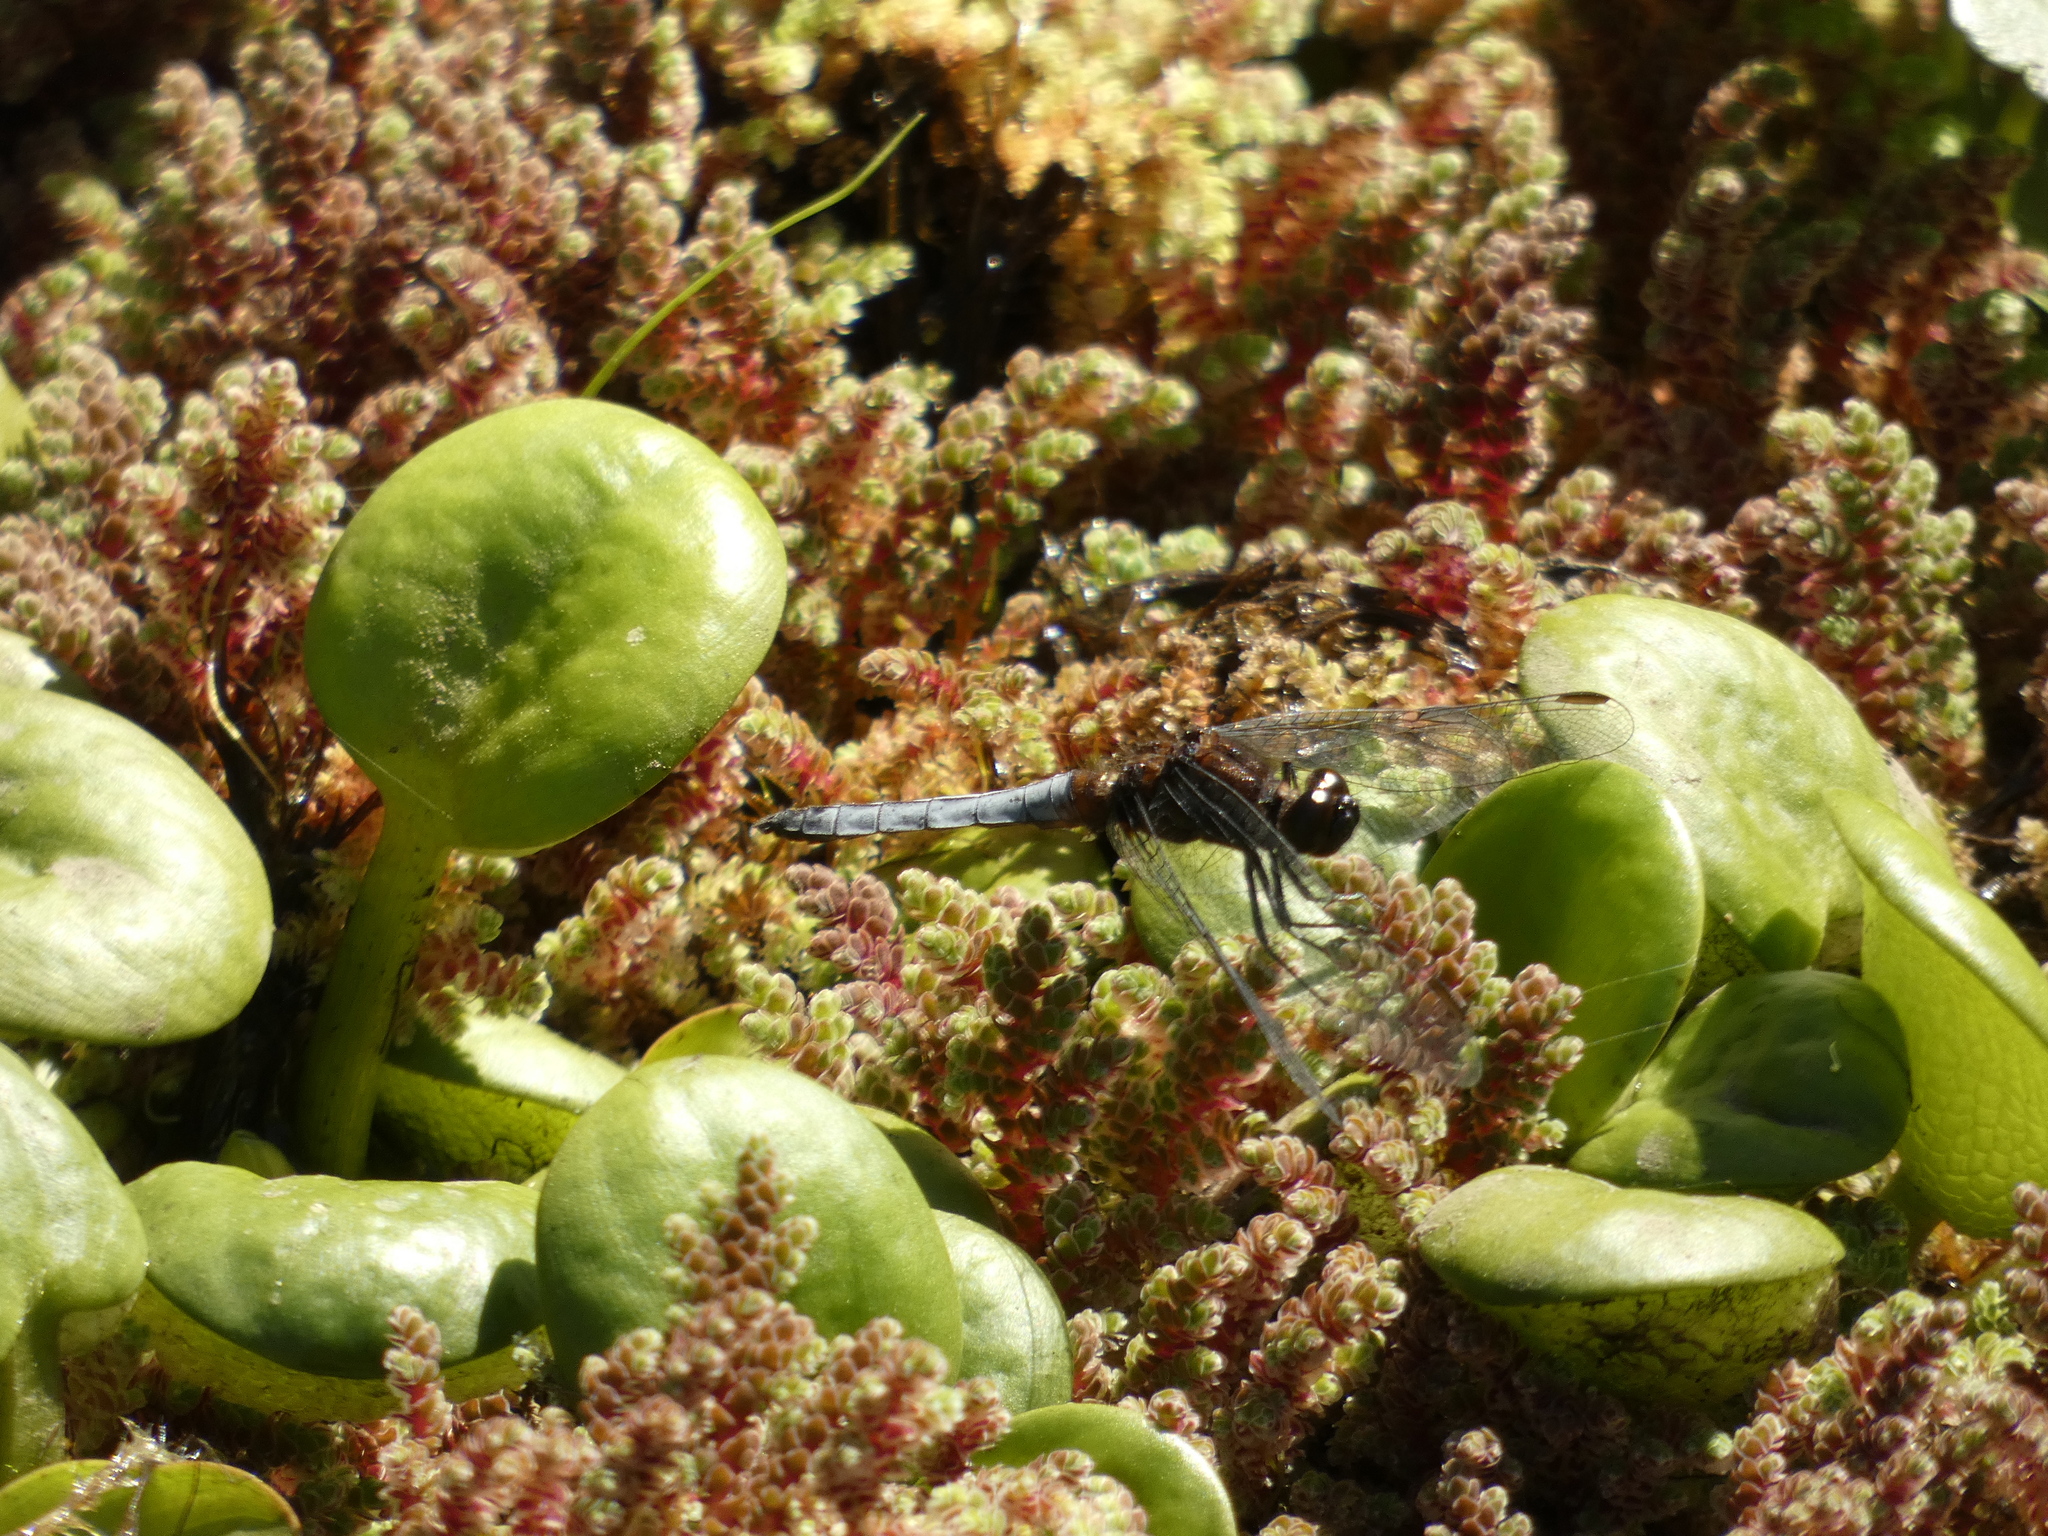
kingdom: Animalia
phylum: Arthropoda
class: Insecta
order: Odonata
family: Libellulidae
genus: Erythrodiplax
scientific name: Erythrodiplax connata
